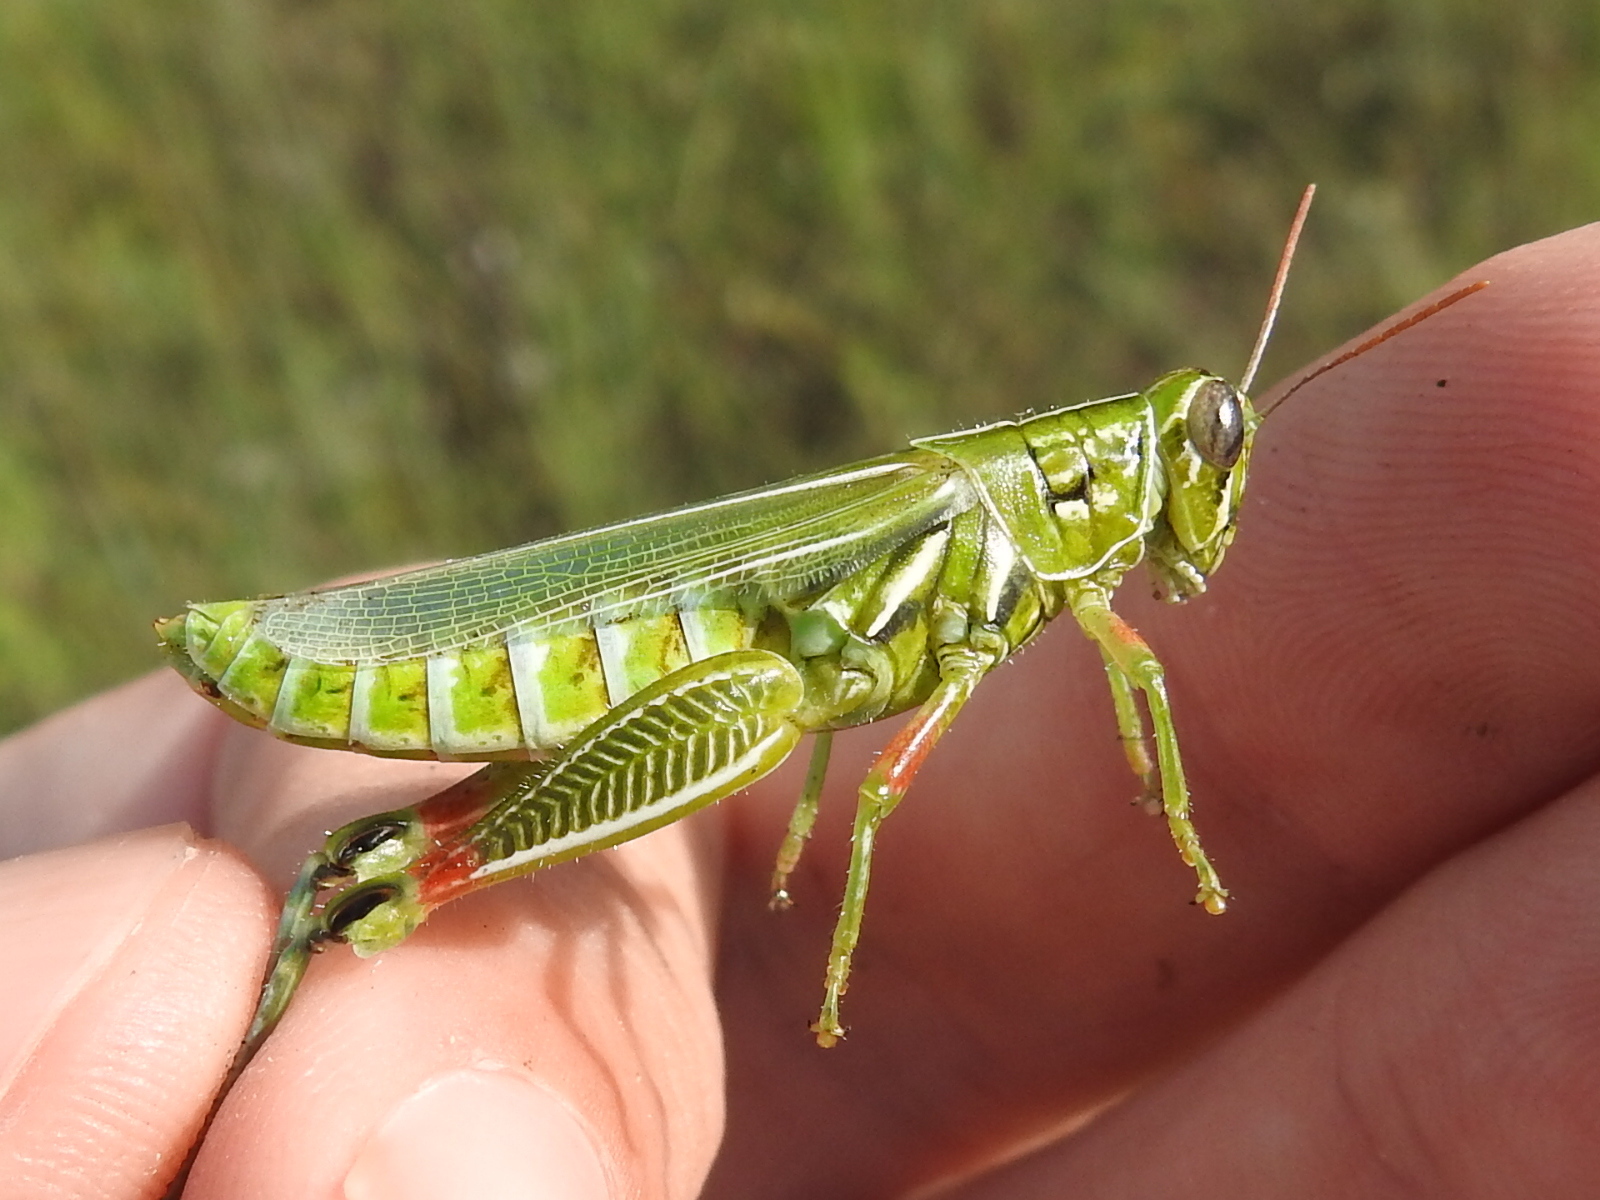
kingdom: Animalia
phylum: Arthropoda
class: Insecta
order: Orthoptera
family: Acrididae
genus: Hesperotettix
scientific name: Hesperotettix viridis
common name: Meadow purple-striped grasshopper
